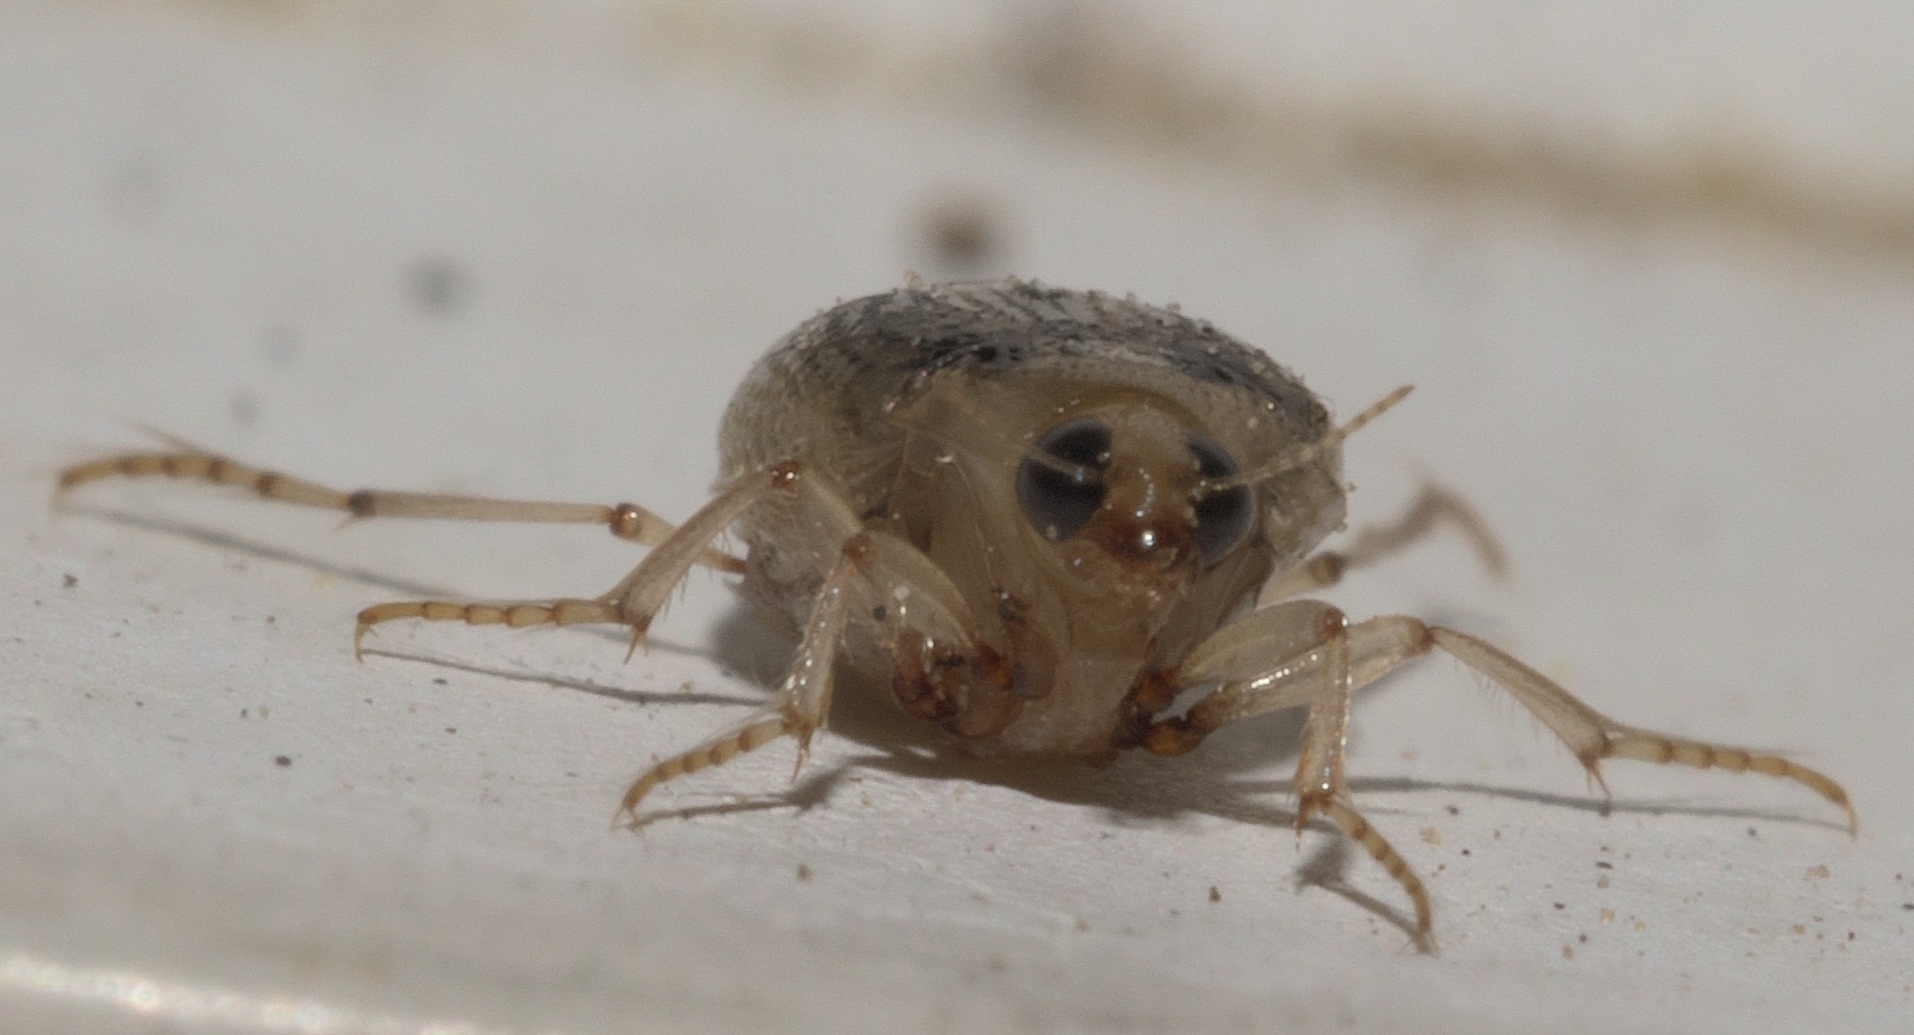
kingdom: Animalia
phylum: Arthropoda
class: Insecta
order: Coleoptera
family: Haliplidae
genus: Peltodytes
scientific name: Peltodytes litoralis
